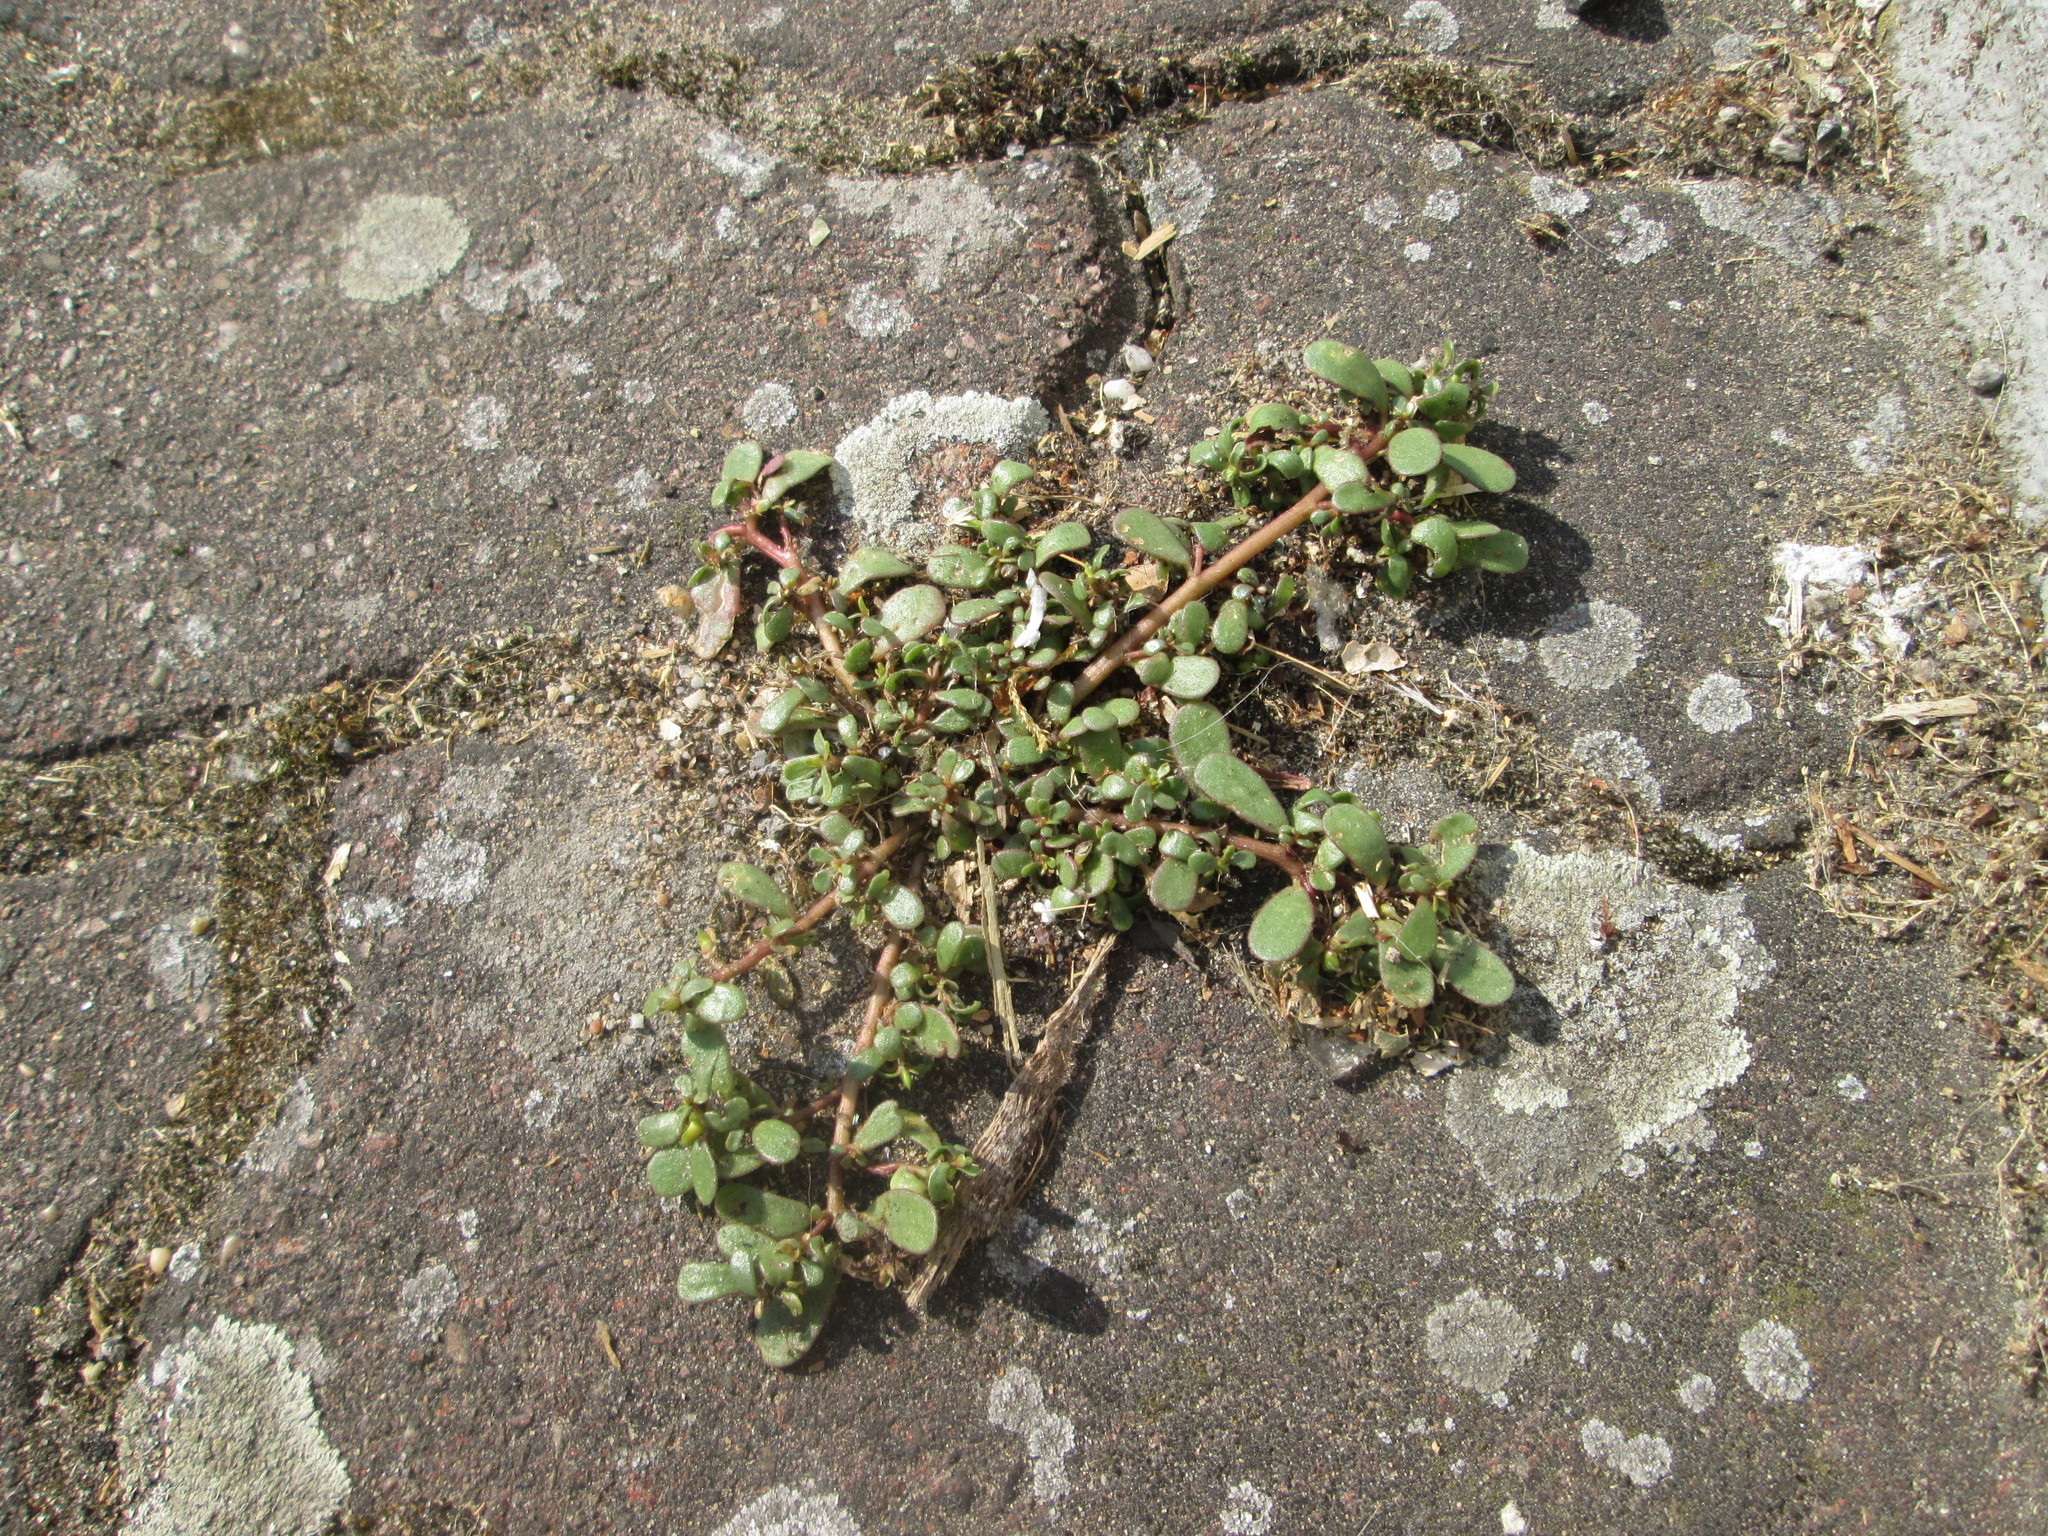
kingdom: Plantae
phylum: Tracheophyta
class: Magnoliopsida
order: Caryophyllales
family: Portulacaceae
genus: Portulaca
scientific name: Portulaca oleracea
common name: Common purslane
